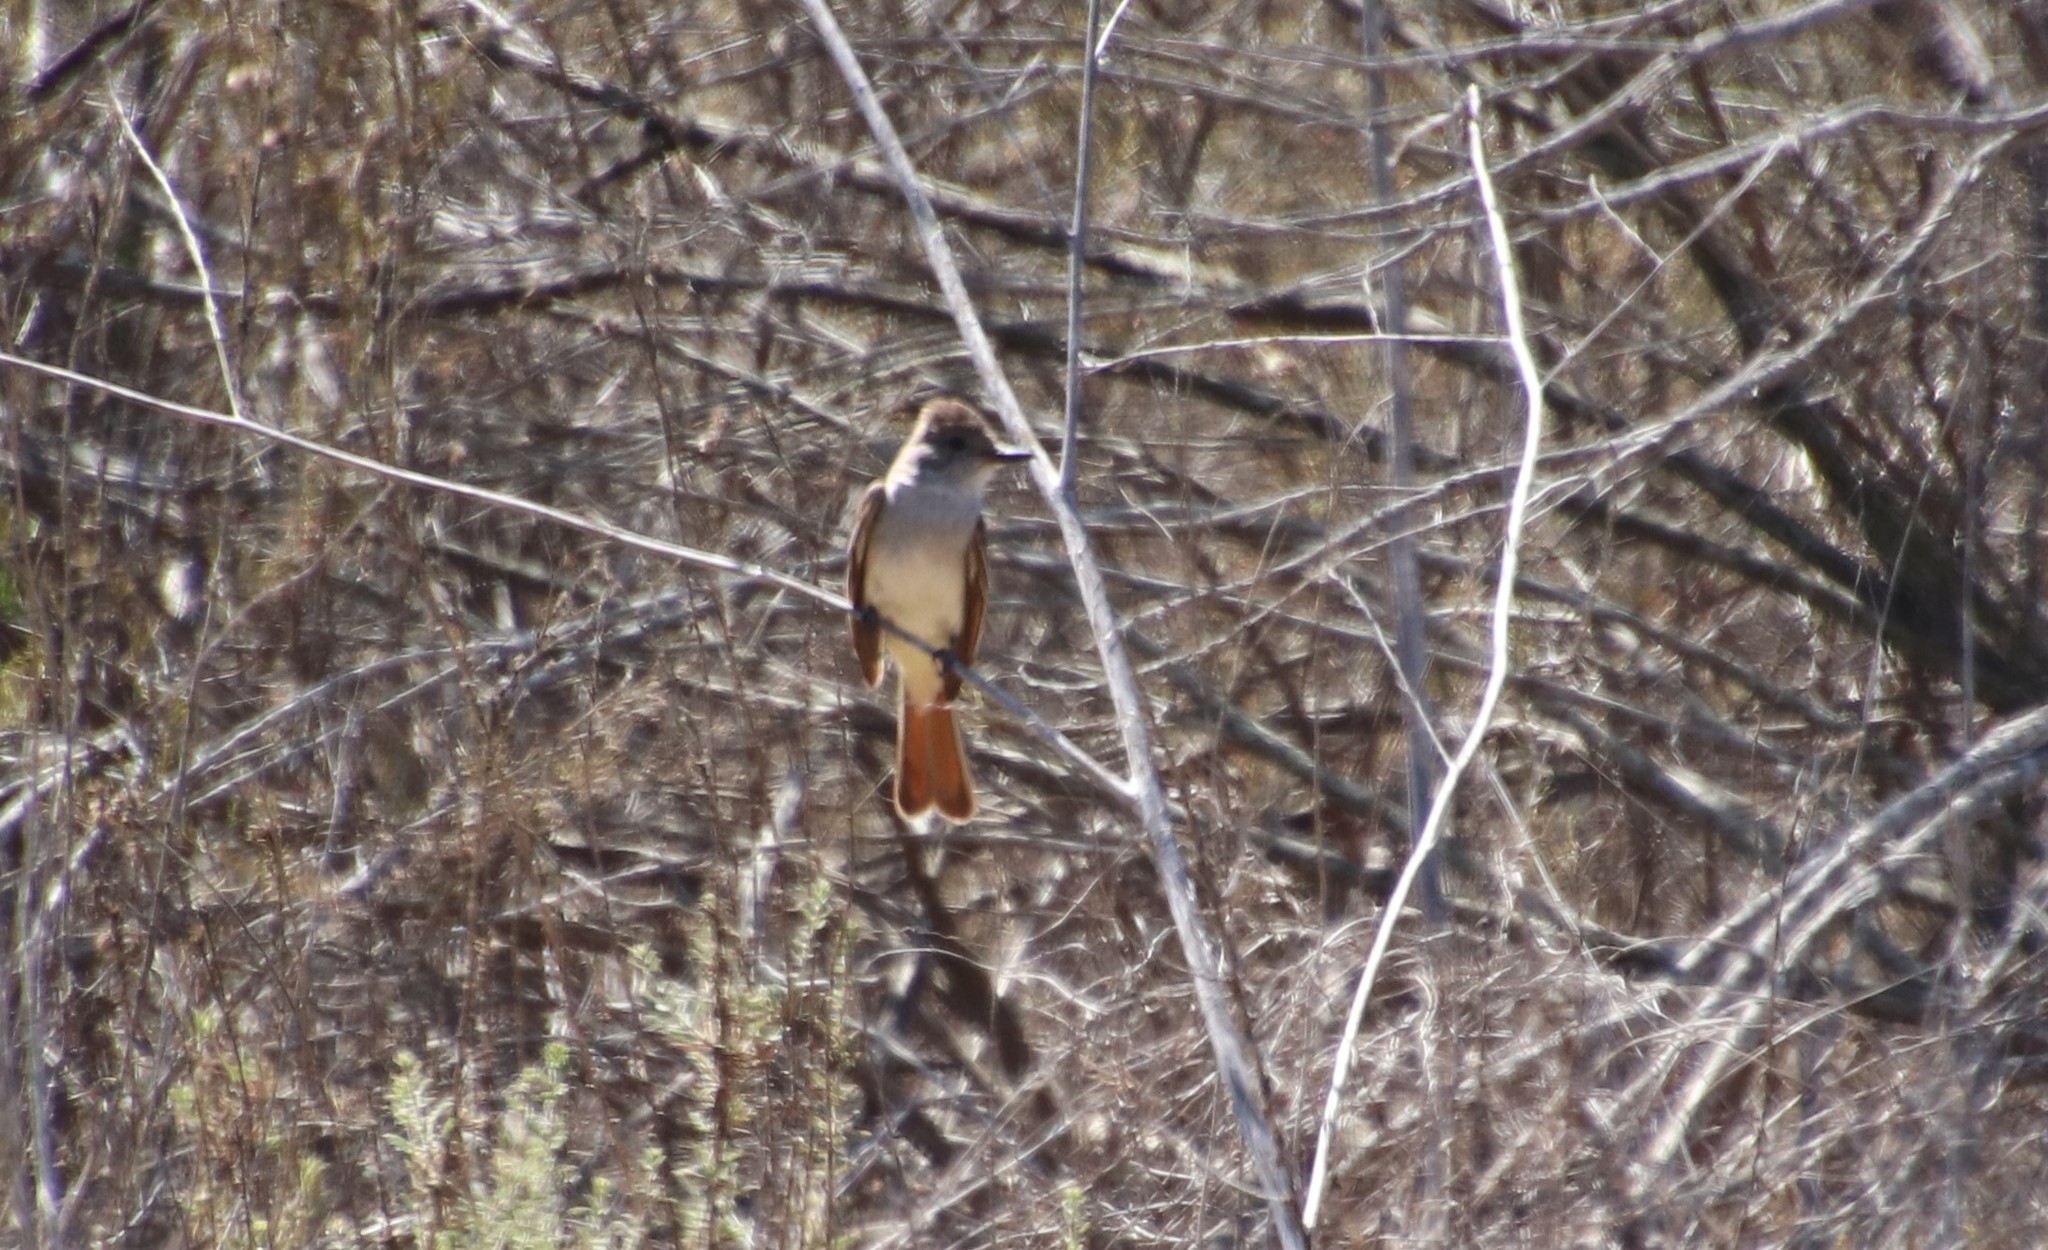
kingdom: Animalia
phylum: Chordata
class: Aves
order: Passeriformes
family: Tyrannidae
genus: Myiarchus
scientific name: Myiarchus cinerascens
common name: Ash-throated flycatcher
